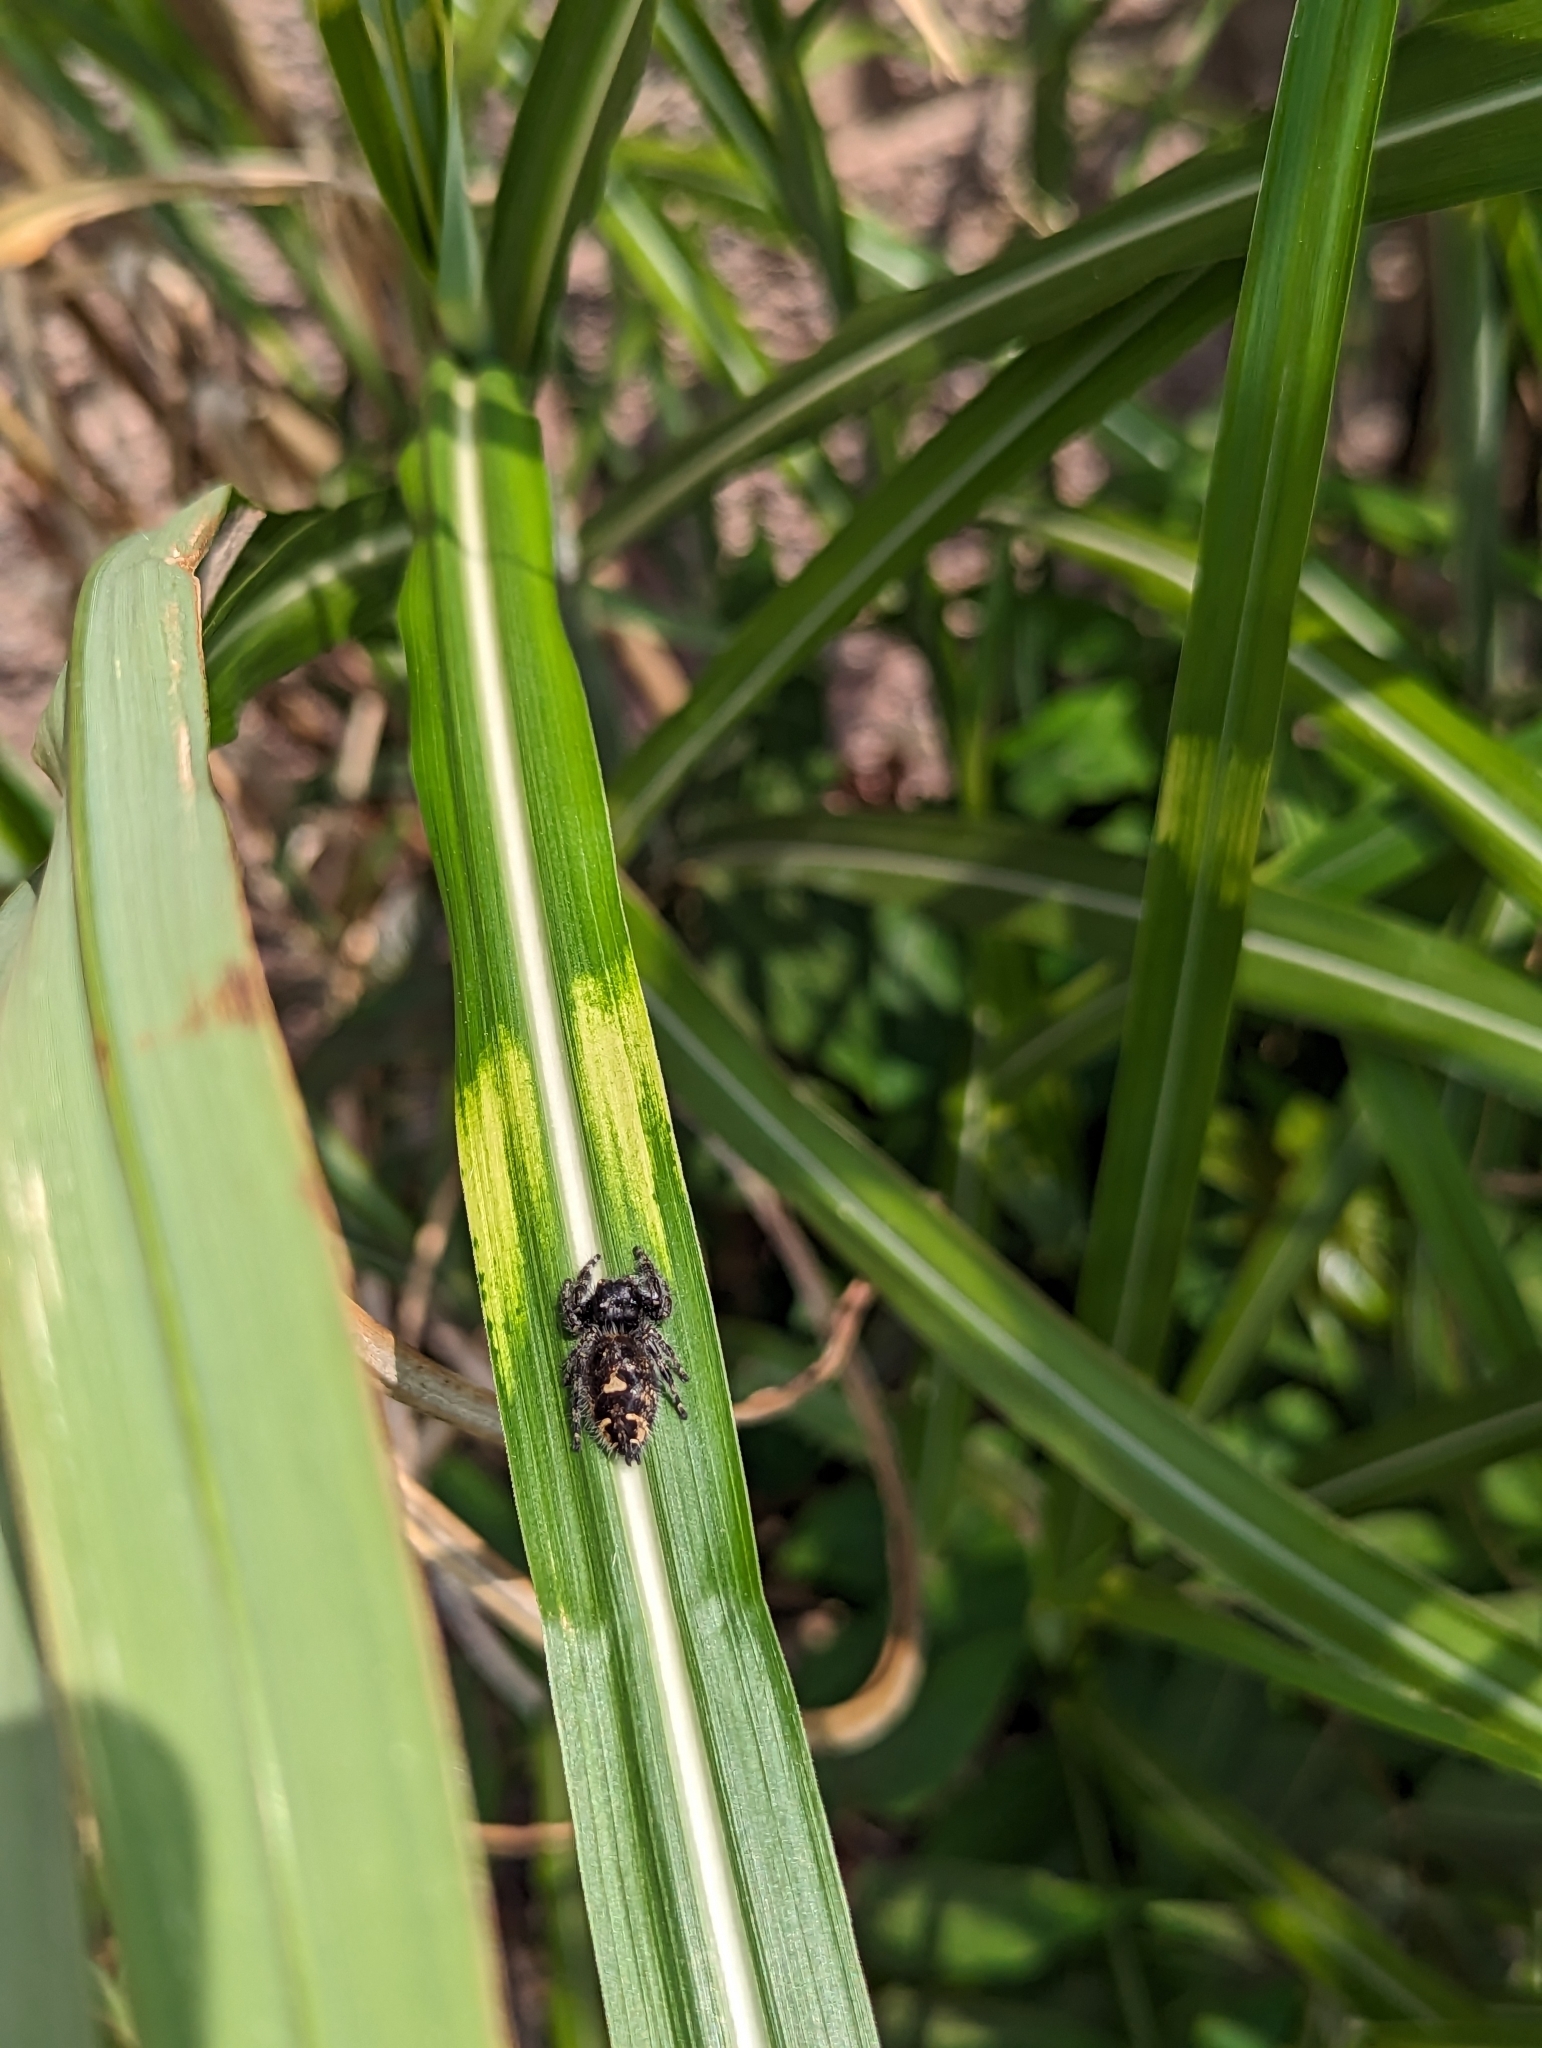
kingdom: Animalia
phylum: Arthropoda
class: Arachnida
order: Araneae
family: Salticidae
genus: Phidippus
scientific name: Phidippus audax
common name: Bold jumper
